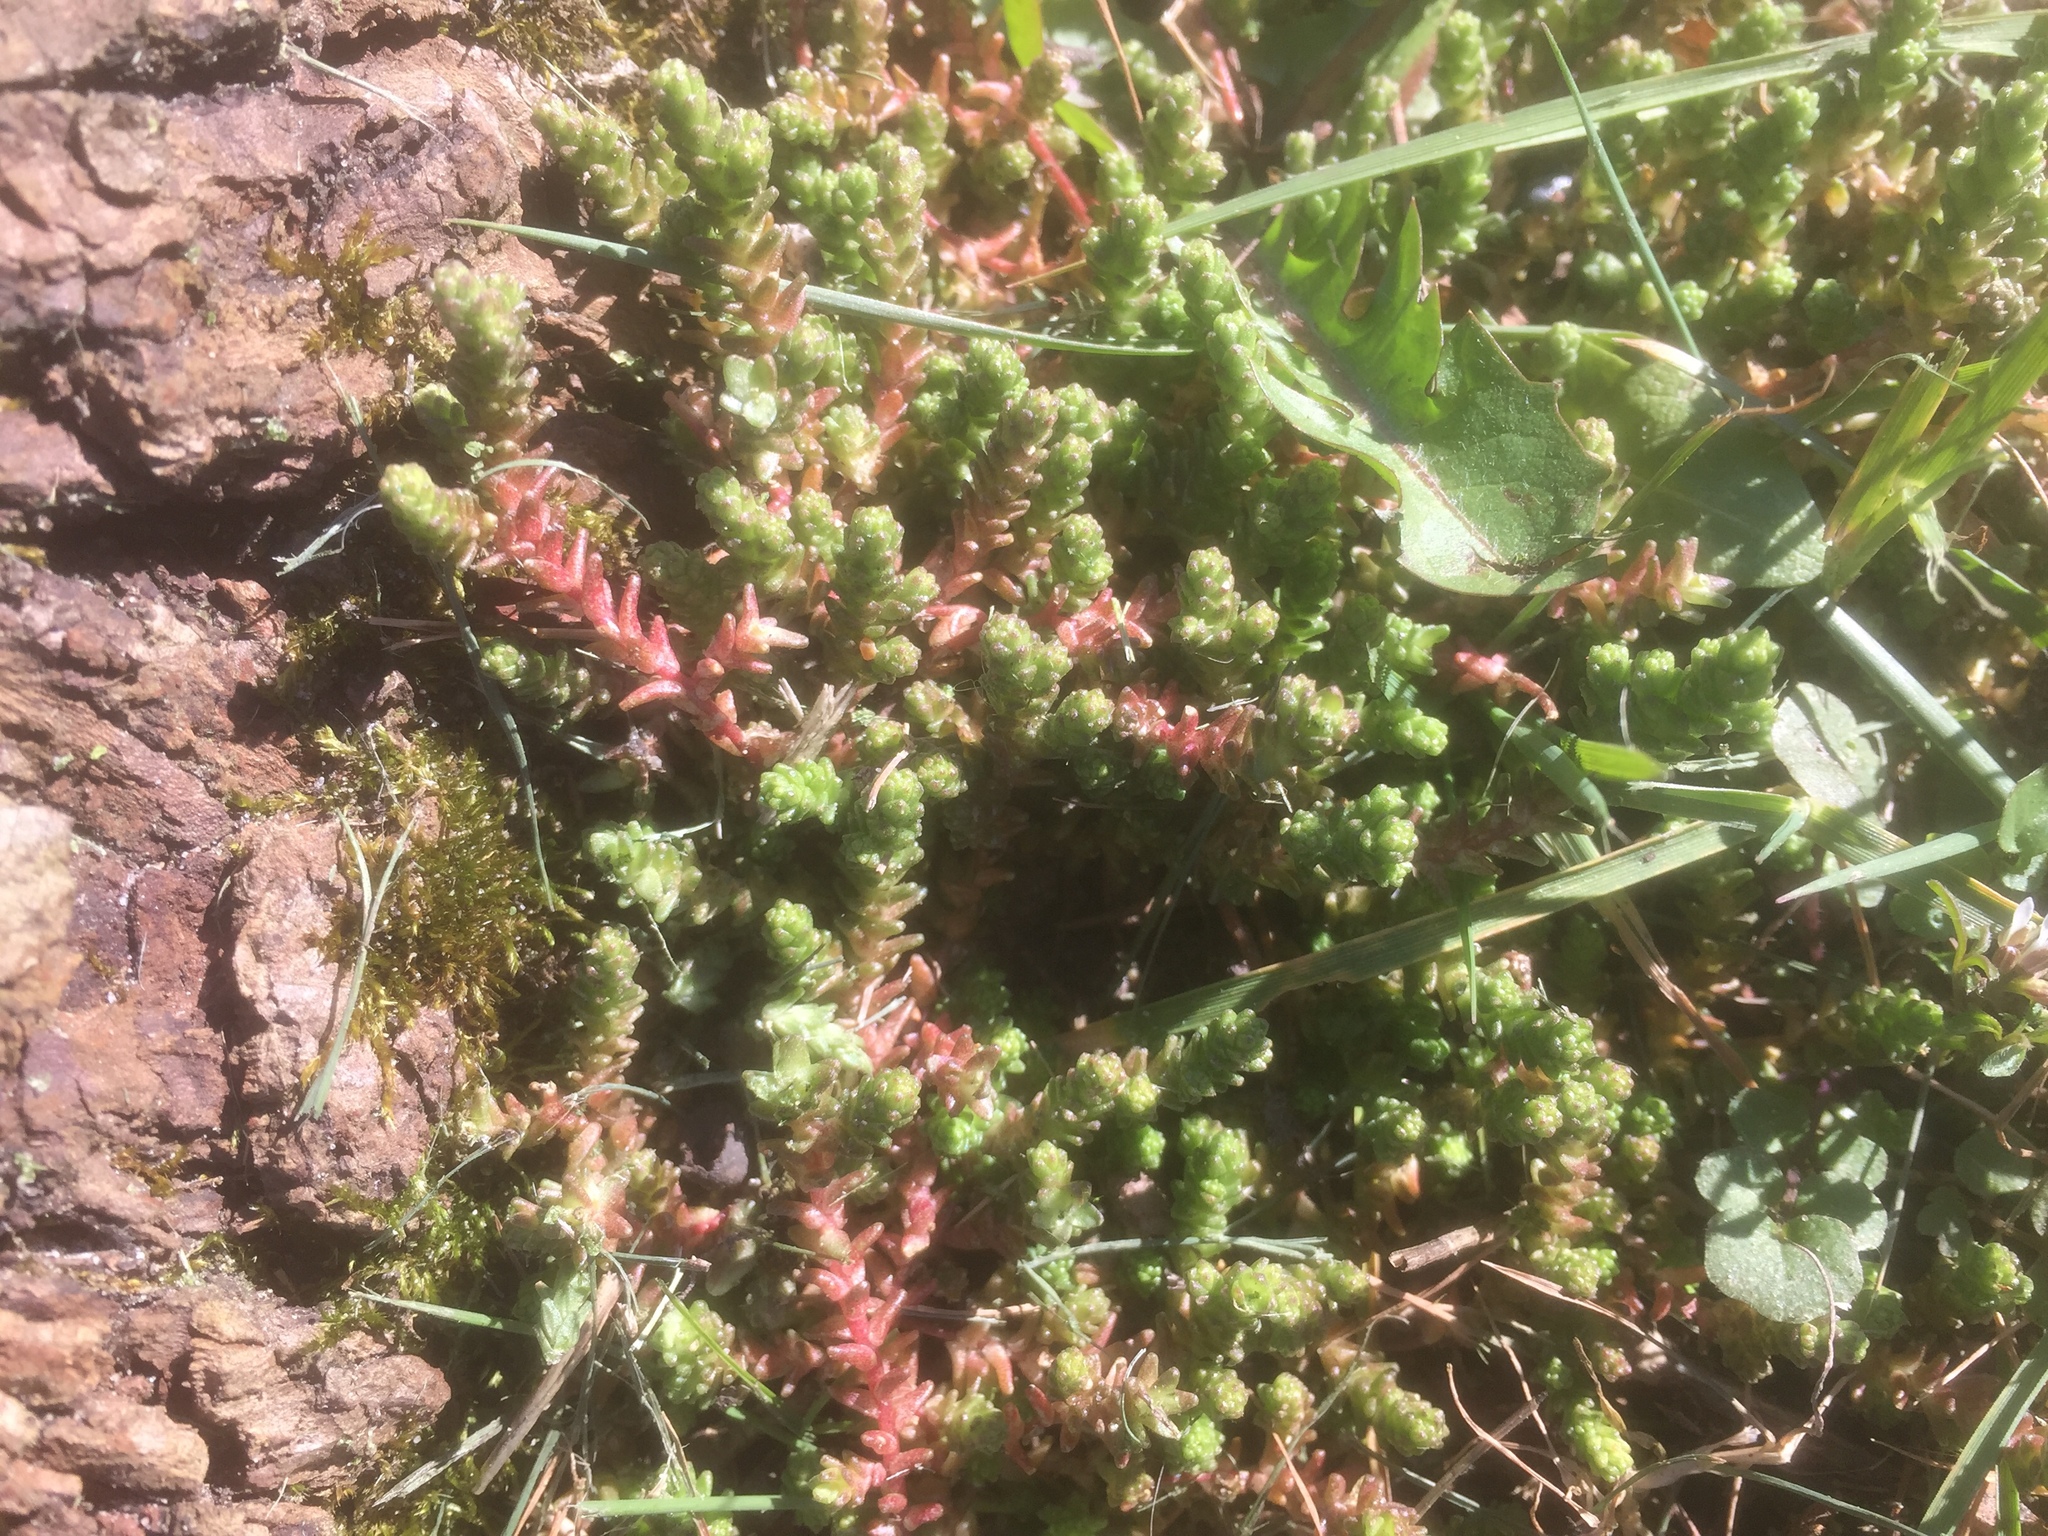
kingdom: Plantae
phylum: Tracheophyta
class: Magnoliopsida
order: Saxifragales
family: Crassulaceae
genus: Sedum
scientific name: Sedum acre
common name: Biting stonecrop
